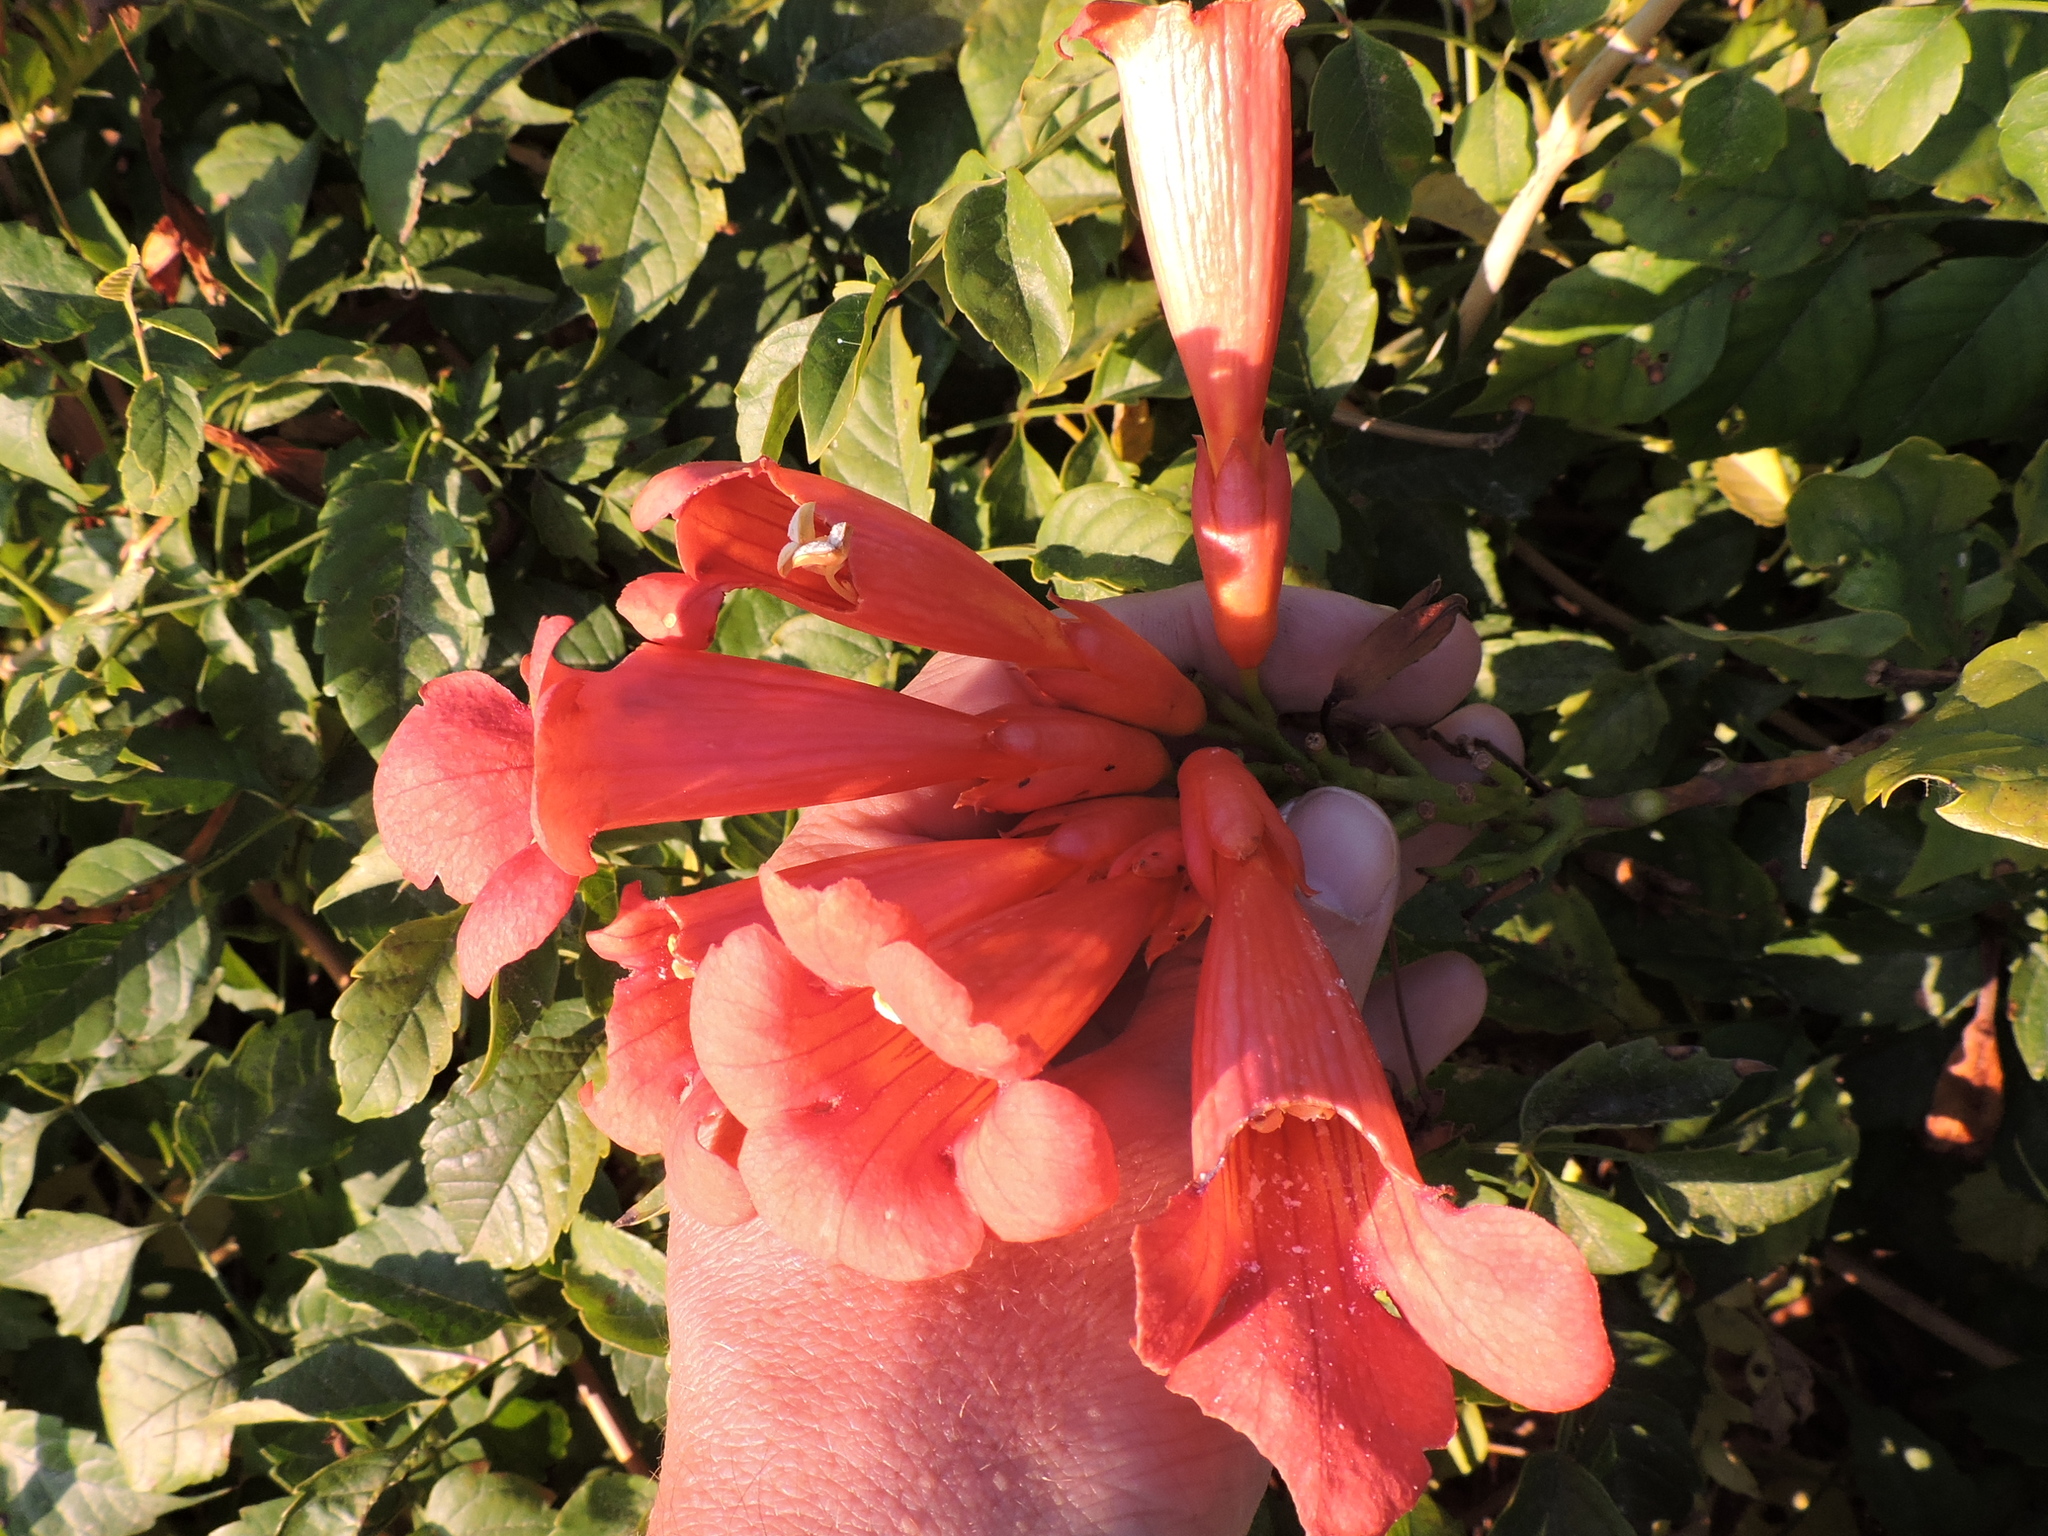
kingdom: Plantae
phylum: Tracheophyta
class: Magnoliopsida
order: Lamiales
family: Bignoniaceae
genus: Campsis
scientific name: Campsis radicans
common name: Trumpet-creeper
